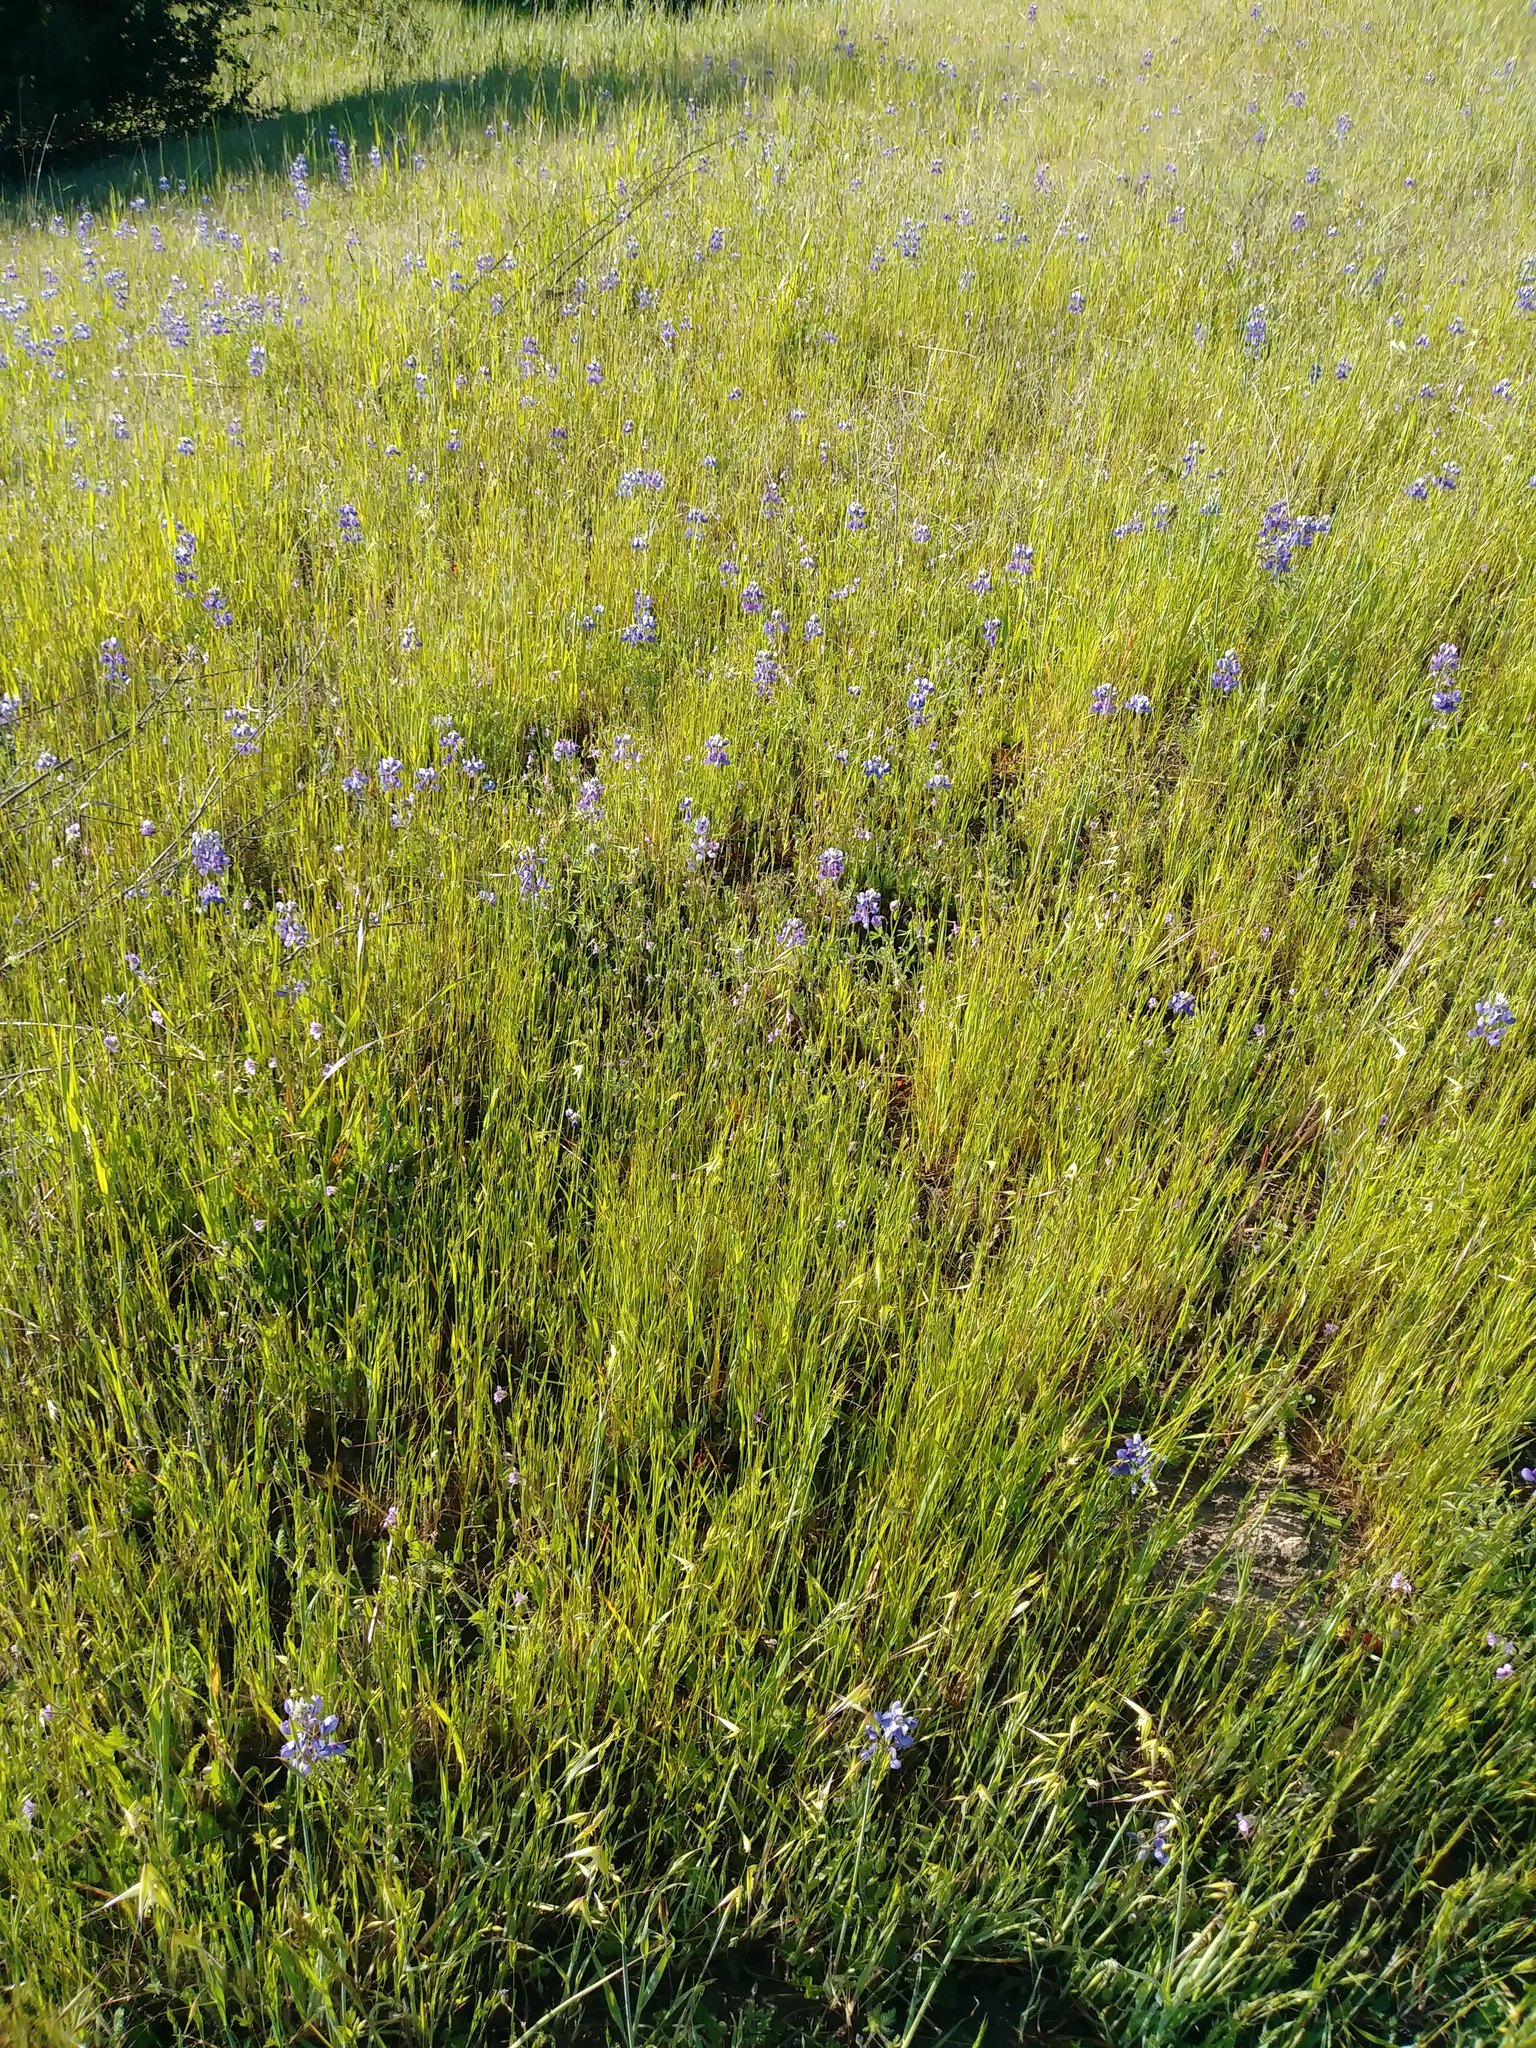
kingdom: Plantae
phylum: Tracheophyta
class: Magnoliopsida
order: Fabales
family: Fabaceae
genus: Lupinus
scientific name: Lupinus nanus
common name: Orean blue lupin
